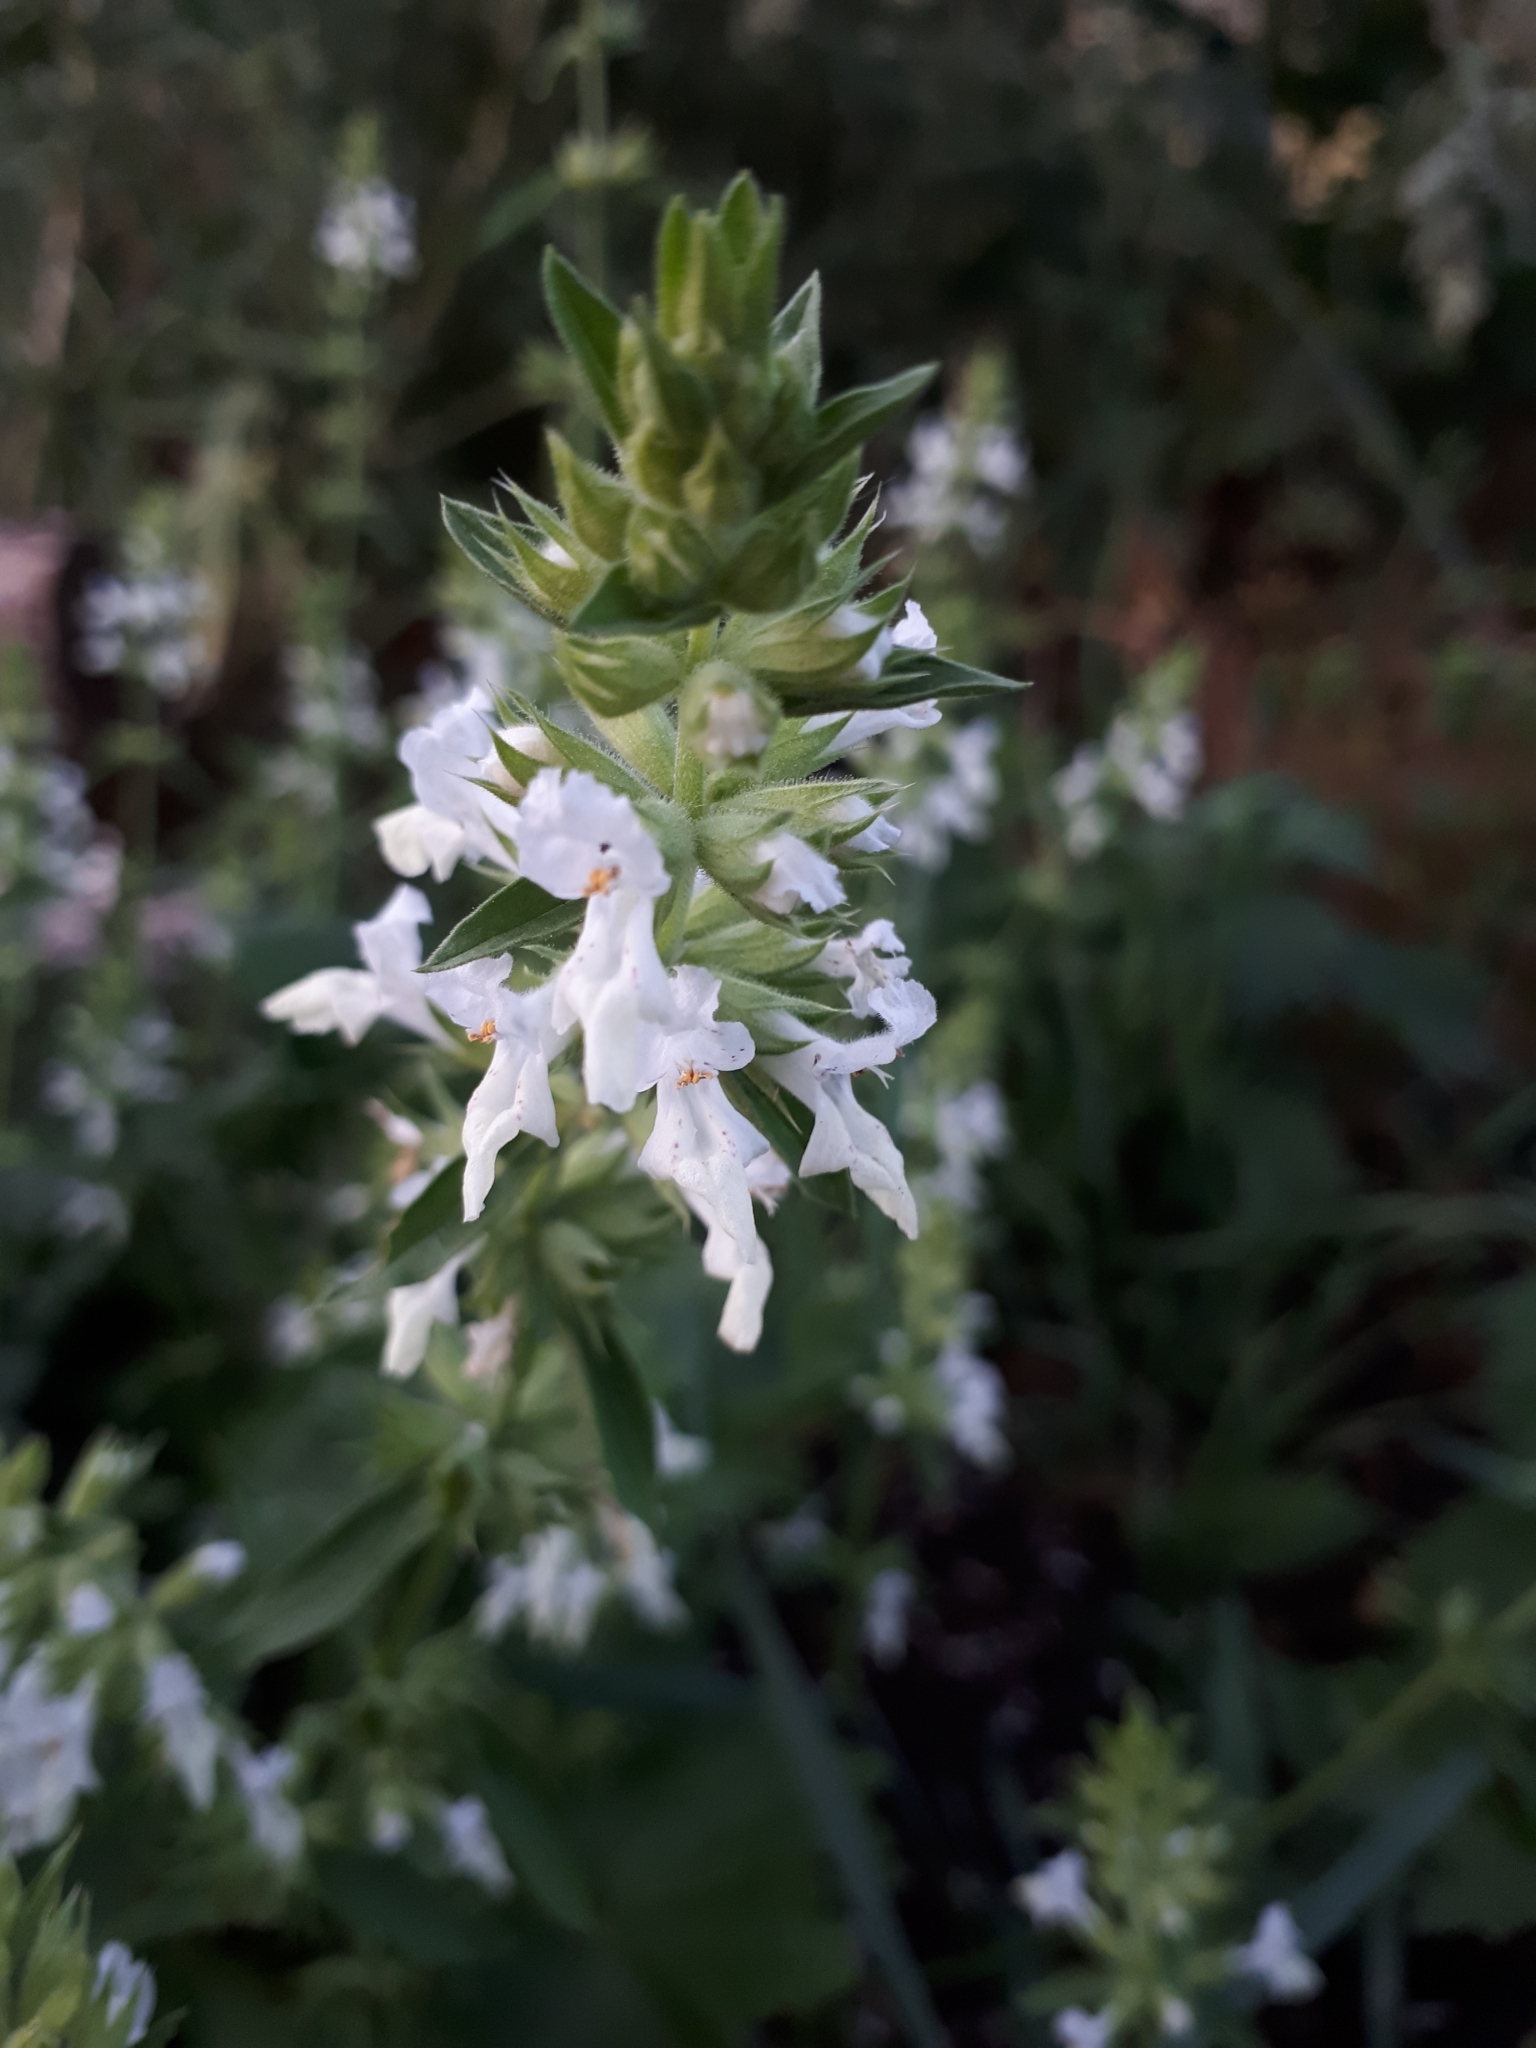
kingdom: Plantae
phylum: Tracheophyta
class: Magnoliopsida
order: Lamiales
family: Lamiaceae
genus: Stachys
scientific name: Stachys annua
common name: Annual yellow-woundwort
